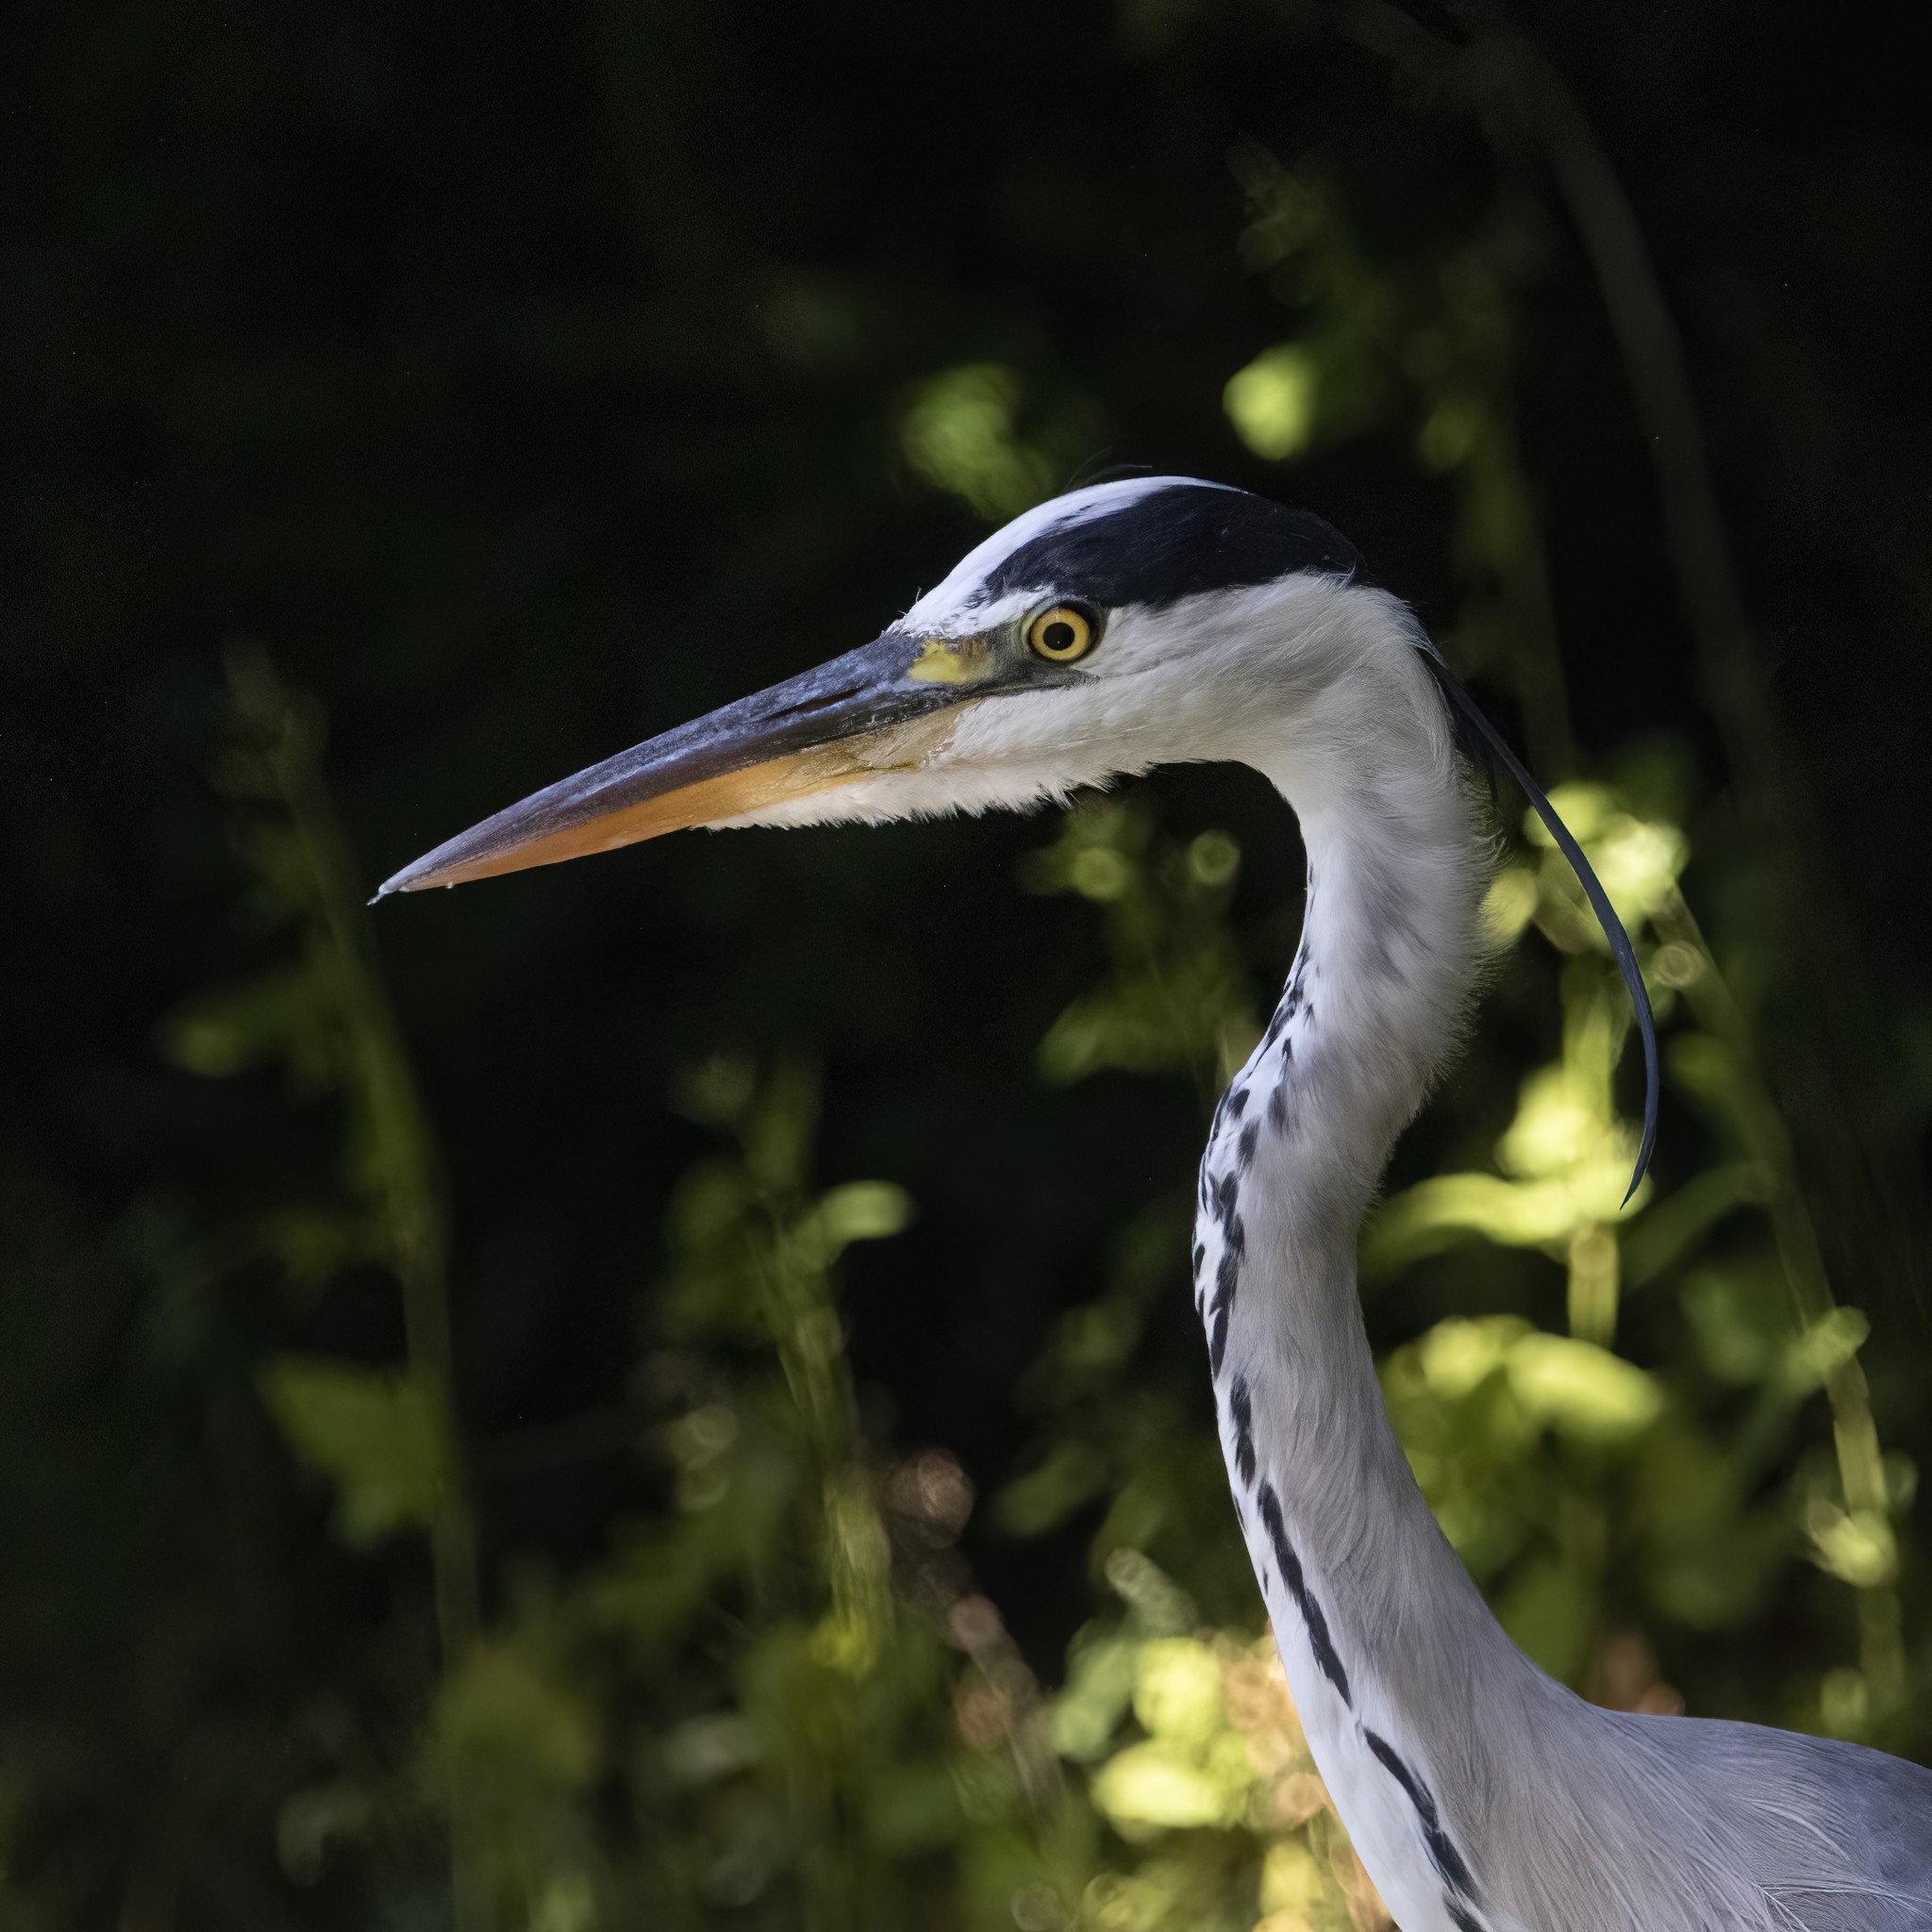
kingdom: Animalia
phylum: Chordata
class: Aves
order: Pelecaniformes
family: Ardeidae
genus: Ardea
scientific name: Ardea cinerea
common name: Grey heron
